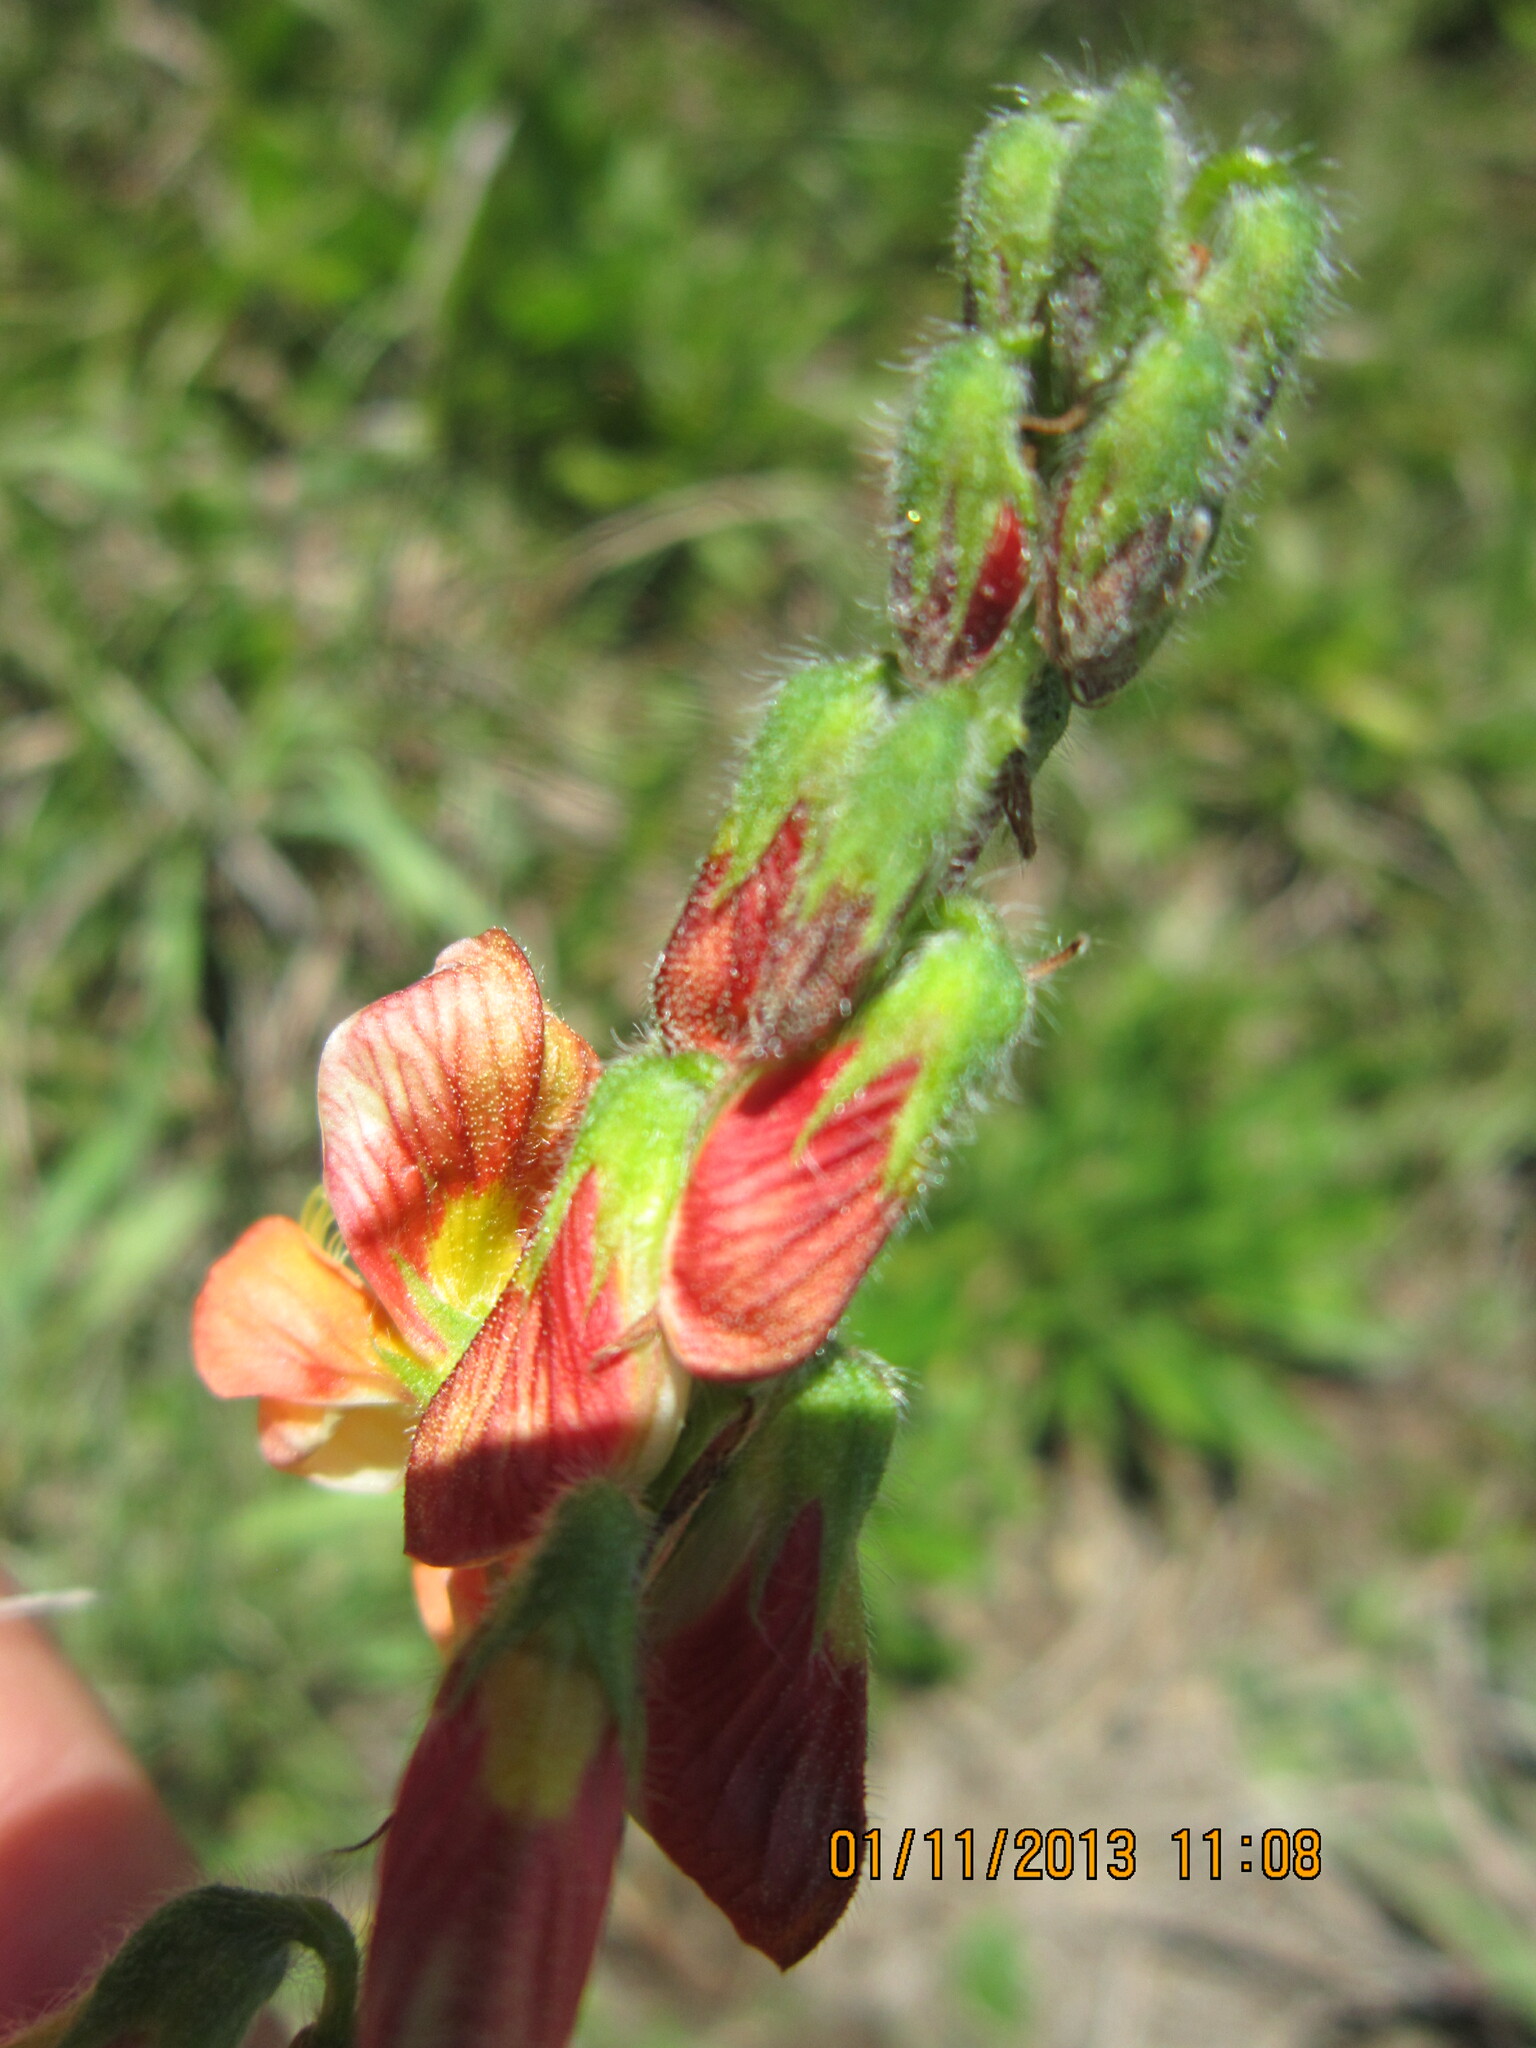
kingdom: Plantae
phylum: Tracheophyta
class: Magnoliopsida
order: Fabales
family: Fabaceae
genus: Eriosema
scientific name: Eriosema distinctum
